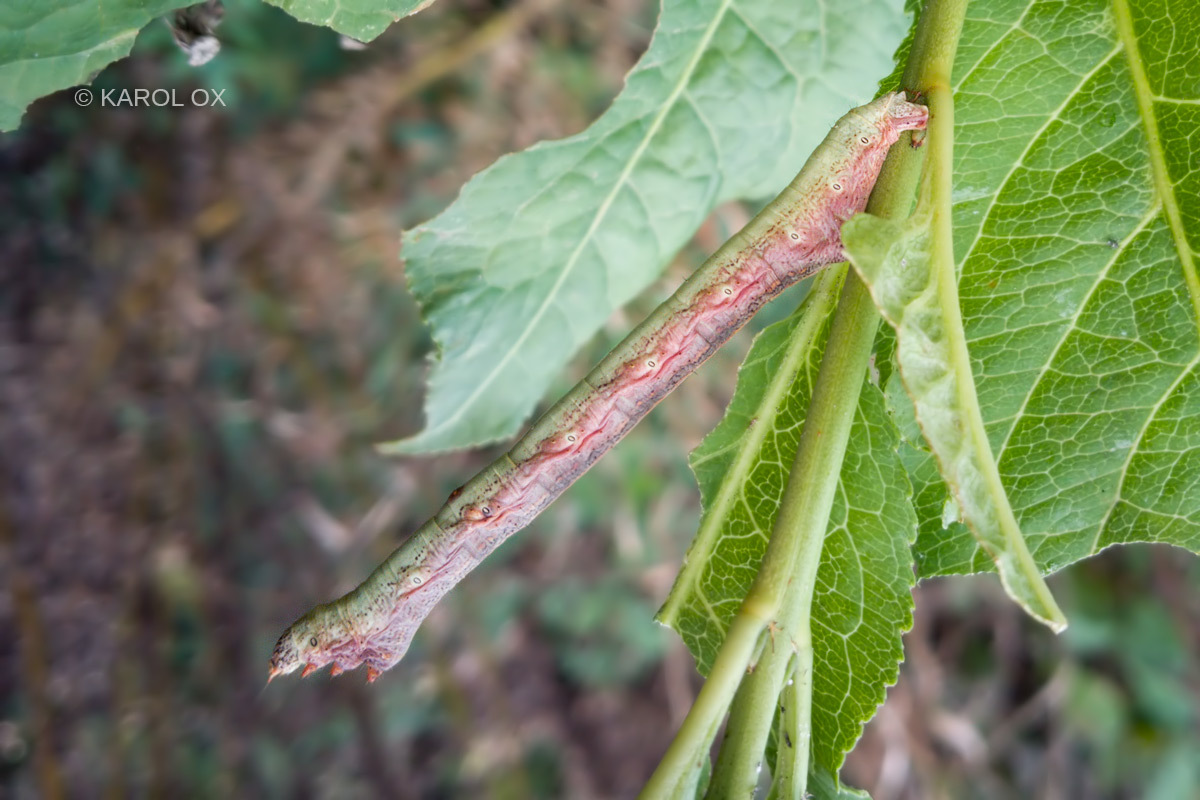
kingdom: Animalia
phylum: Arthropoda
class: Insecta
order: Lepidoptera
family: Geometridae
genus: Ascotis
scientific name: Ascotis selenaria
